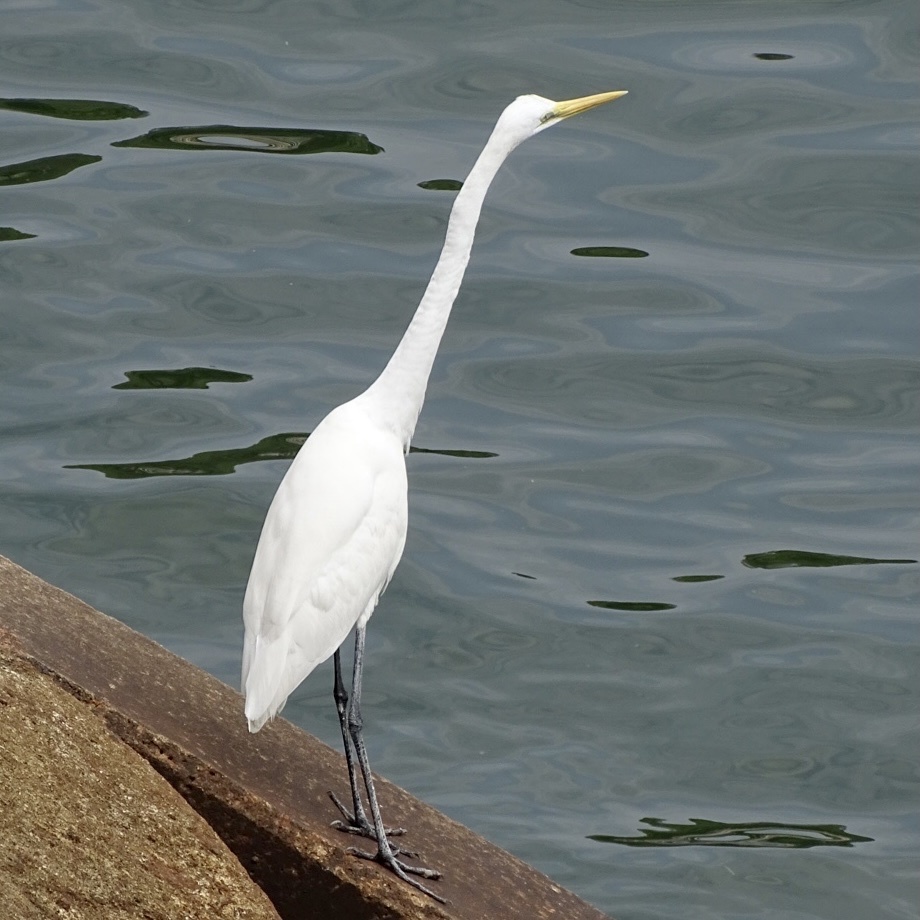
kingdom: Animalia
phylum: Chordata
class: Aves
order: Pelecaniformes
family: Ardeidae
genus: Ardea
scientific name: Ardea alba
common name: Great egret
